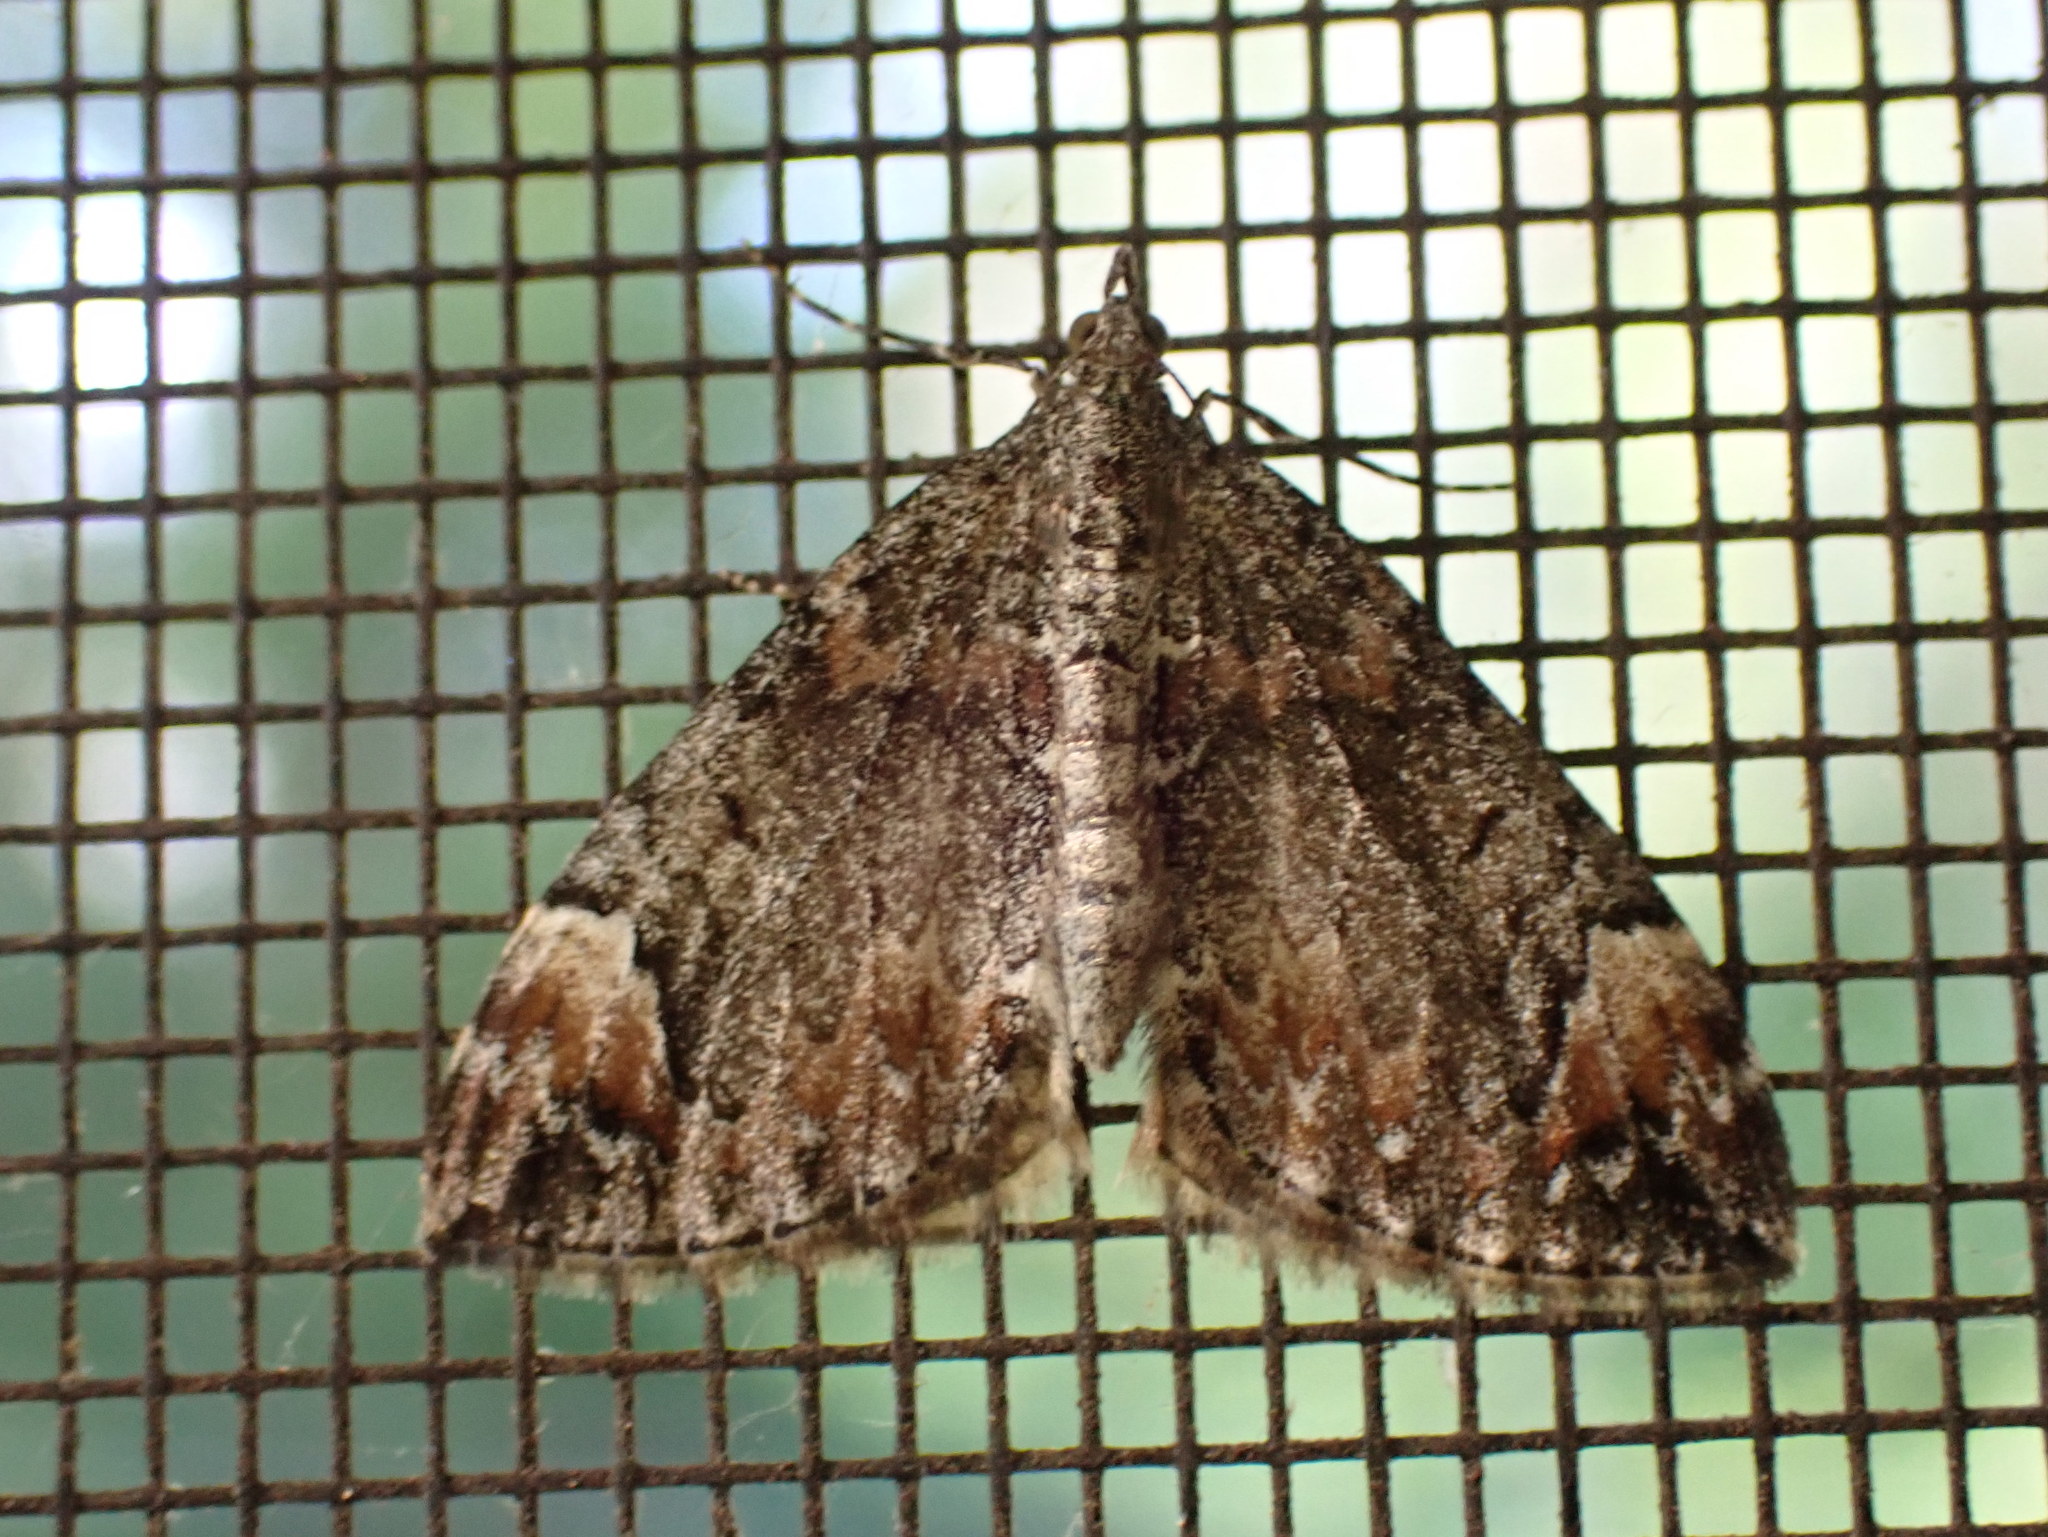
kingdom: Animalia
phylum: Arthropoda
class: Insecta
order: Lepidoptera
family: Geometridae
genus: Dysstroma
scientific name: Dysstroma citrata
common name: Dark marbled carpet
